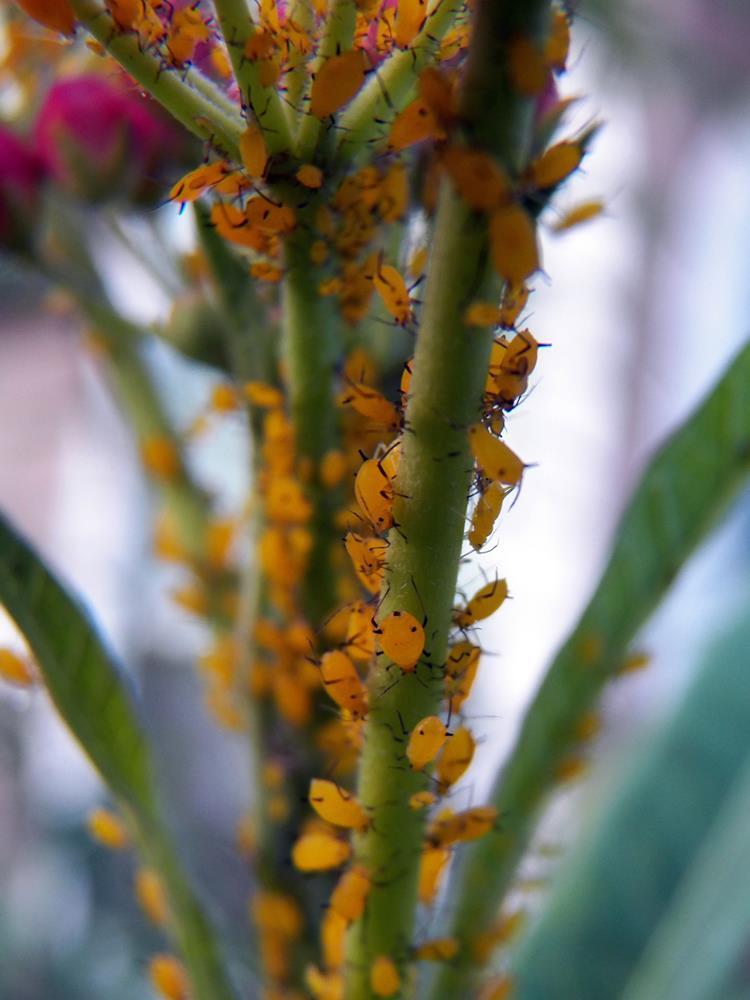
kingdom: Animalia
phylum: Arthropoda
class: Insecta
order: Hemiptera
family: Aphididae
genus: Aphis
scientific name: Aphis nerii
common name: Oleander aphid
